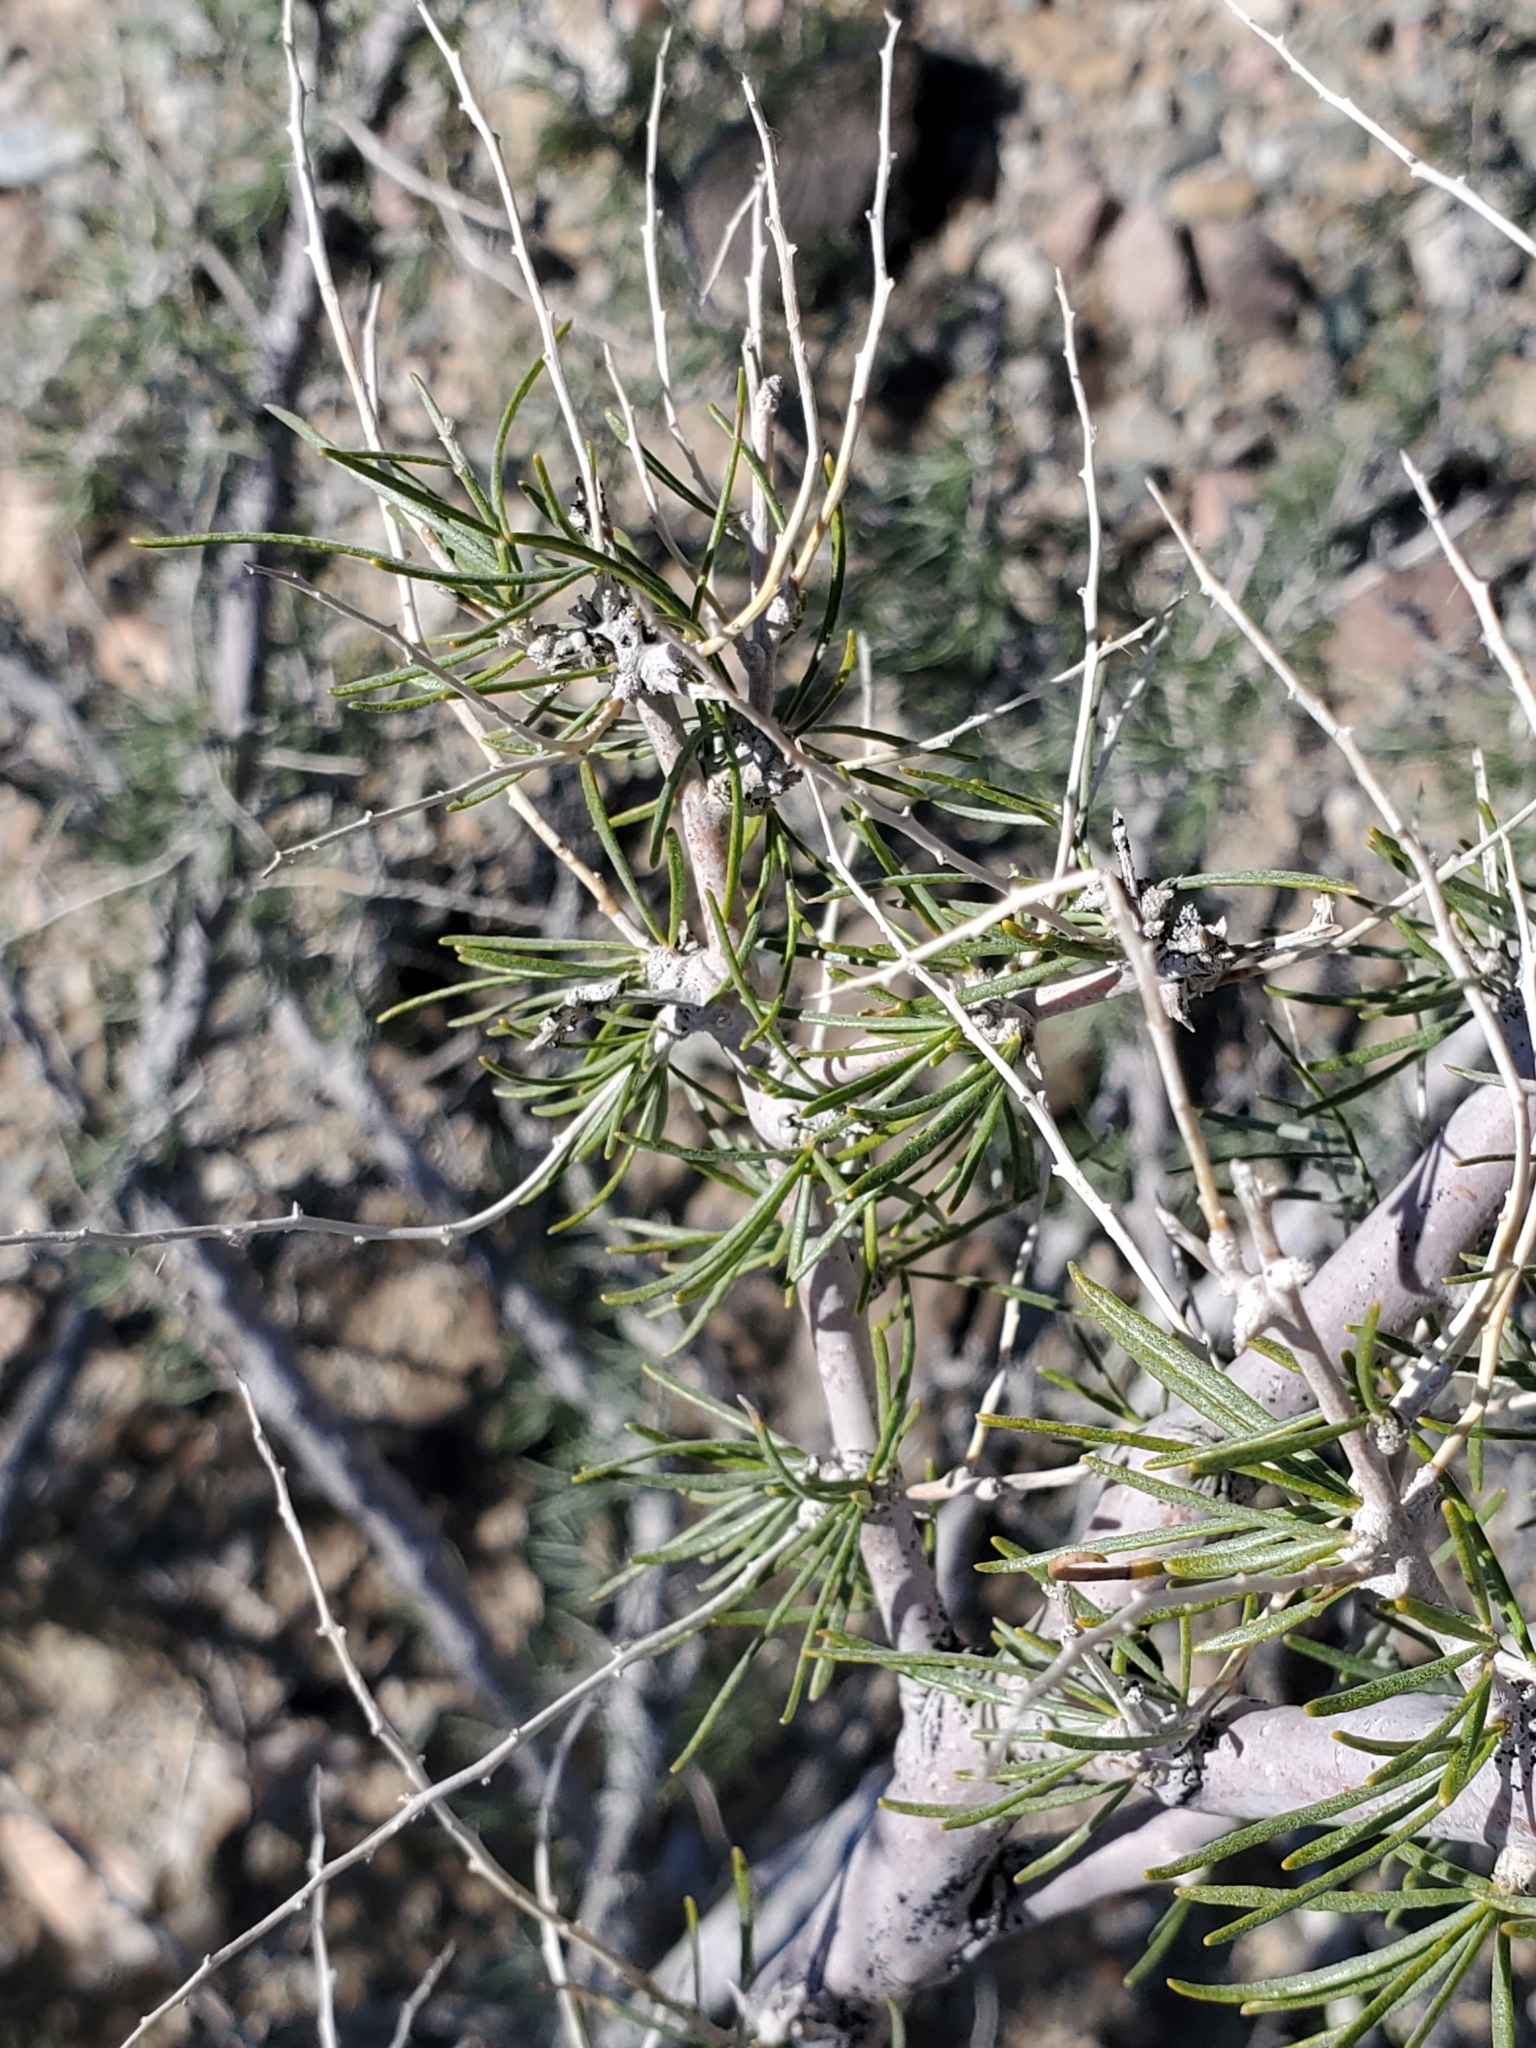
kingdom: Plantae
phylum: Tracheophyta
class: Magnoliopsida
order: Fabales
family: Fabaceae
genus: Psorothamnus
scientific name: Psorothamnus schottii
